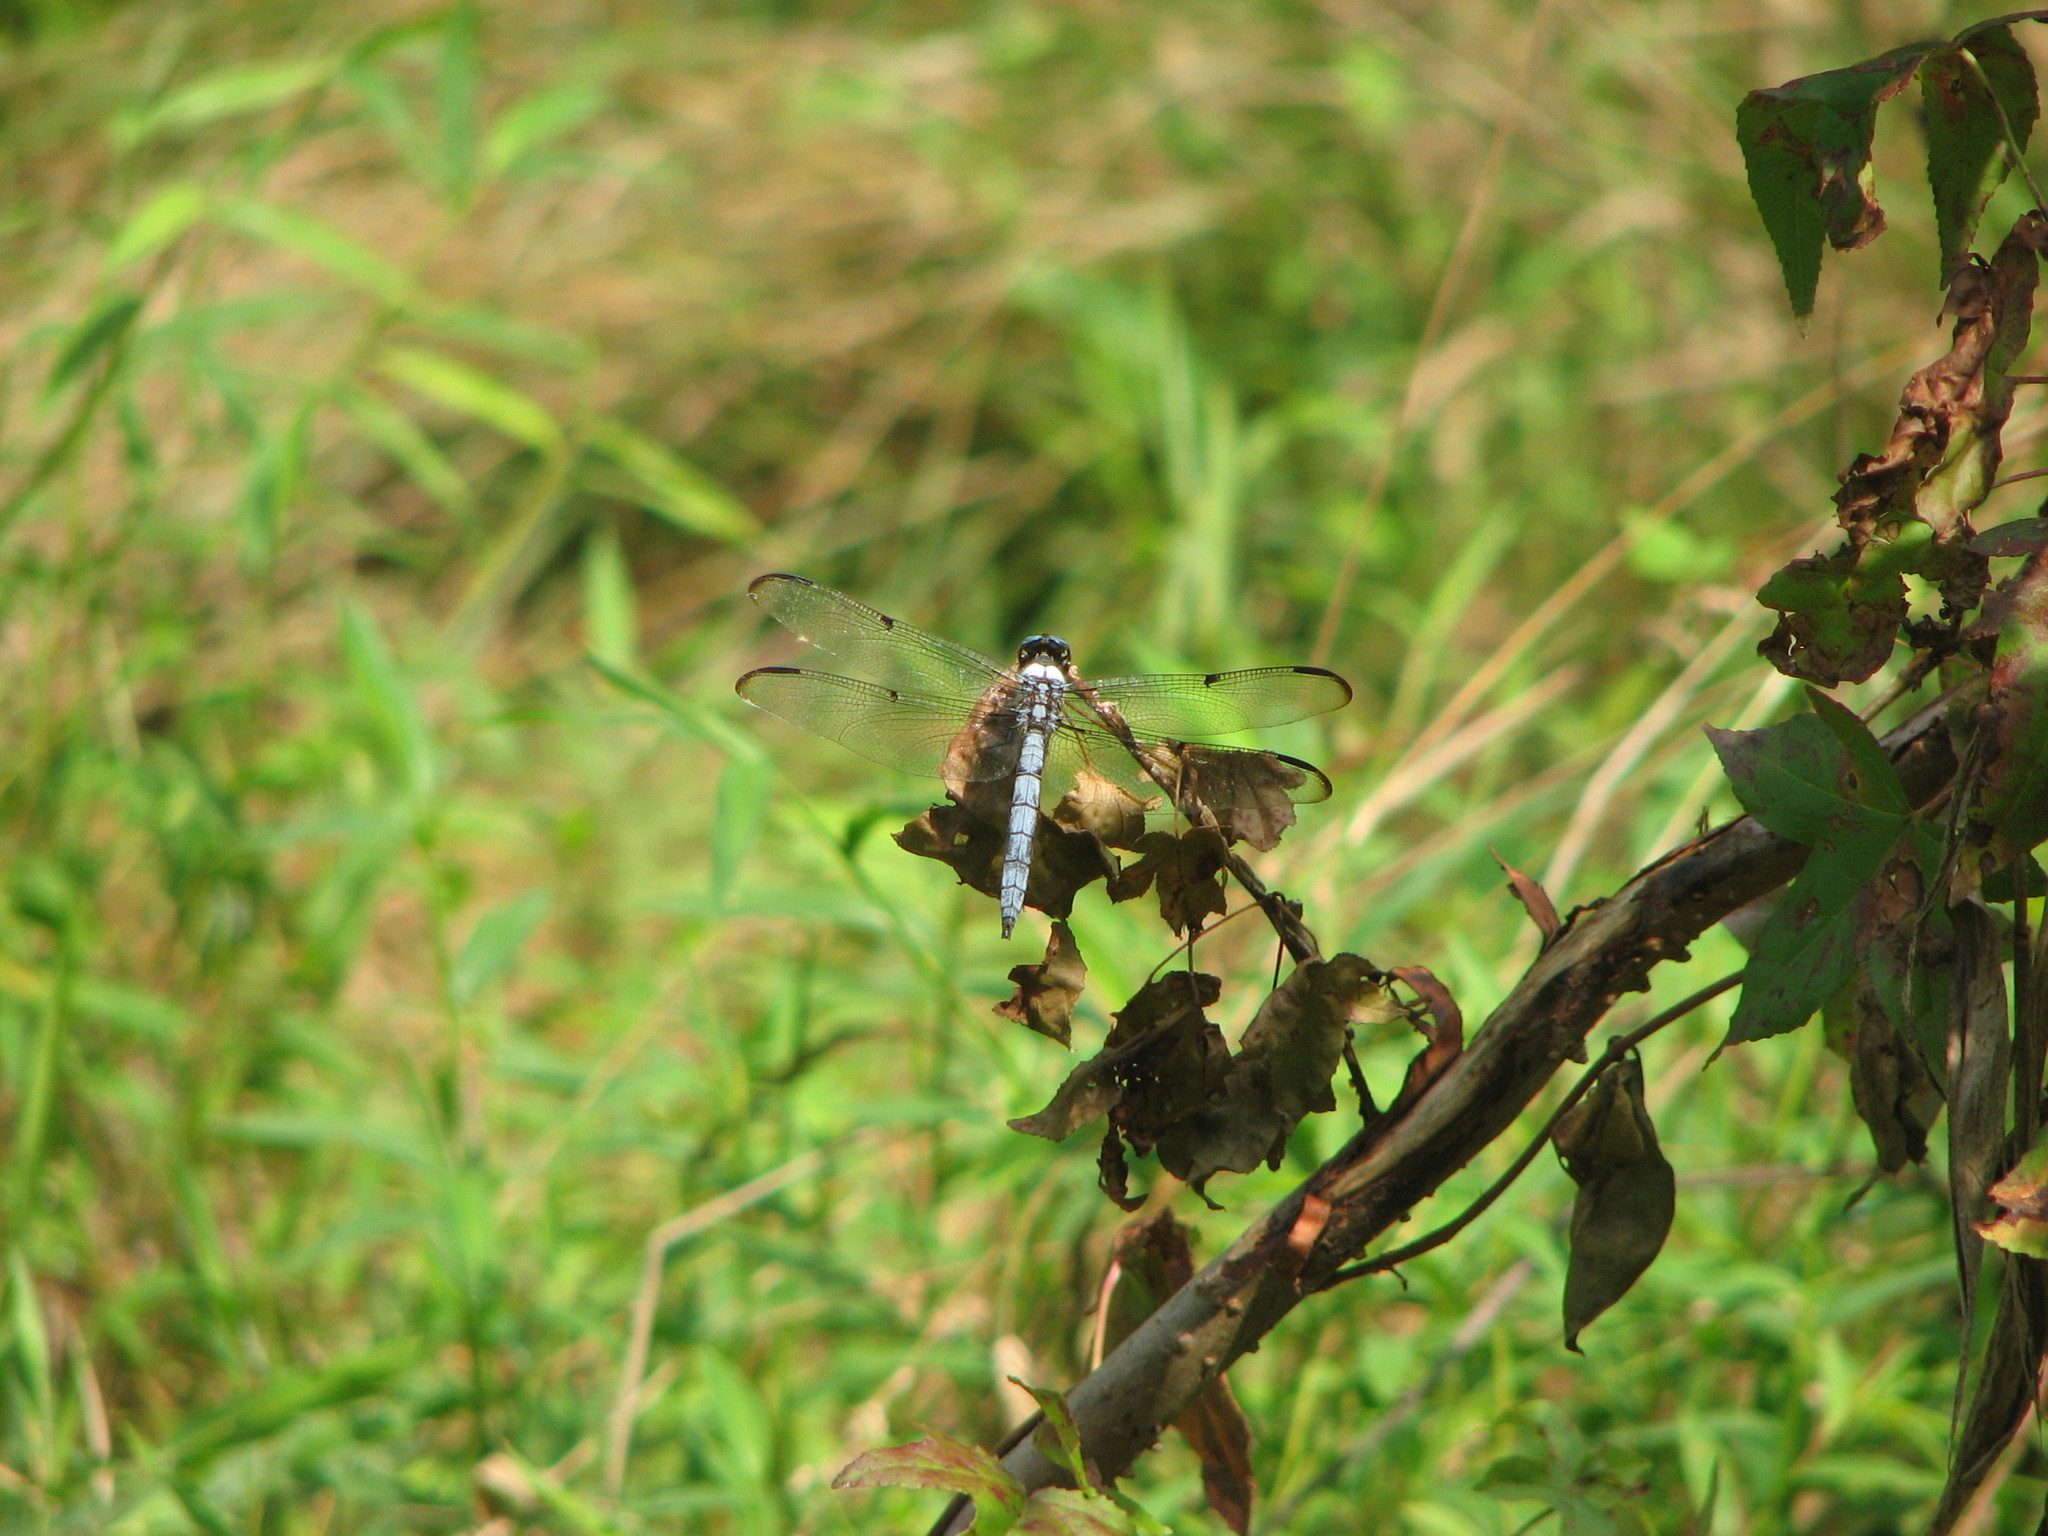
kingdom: Animalia
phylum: Arthropoda
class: Insecta
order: Odonata
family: Libellulidae
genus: Libellula
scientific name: Libellula vibrans
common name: Great blue skimmer
